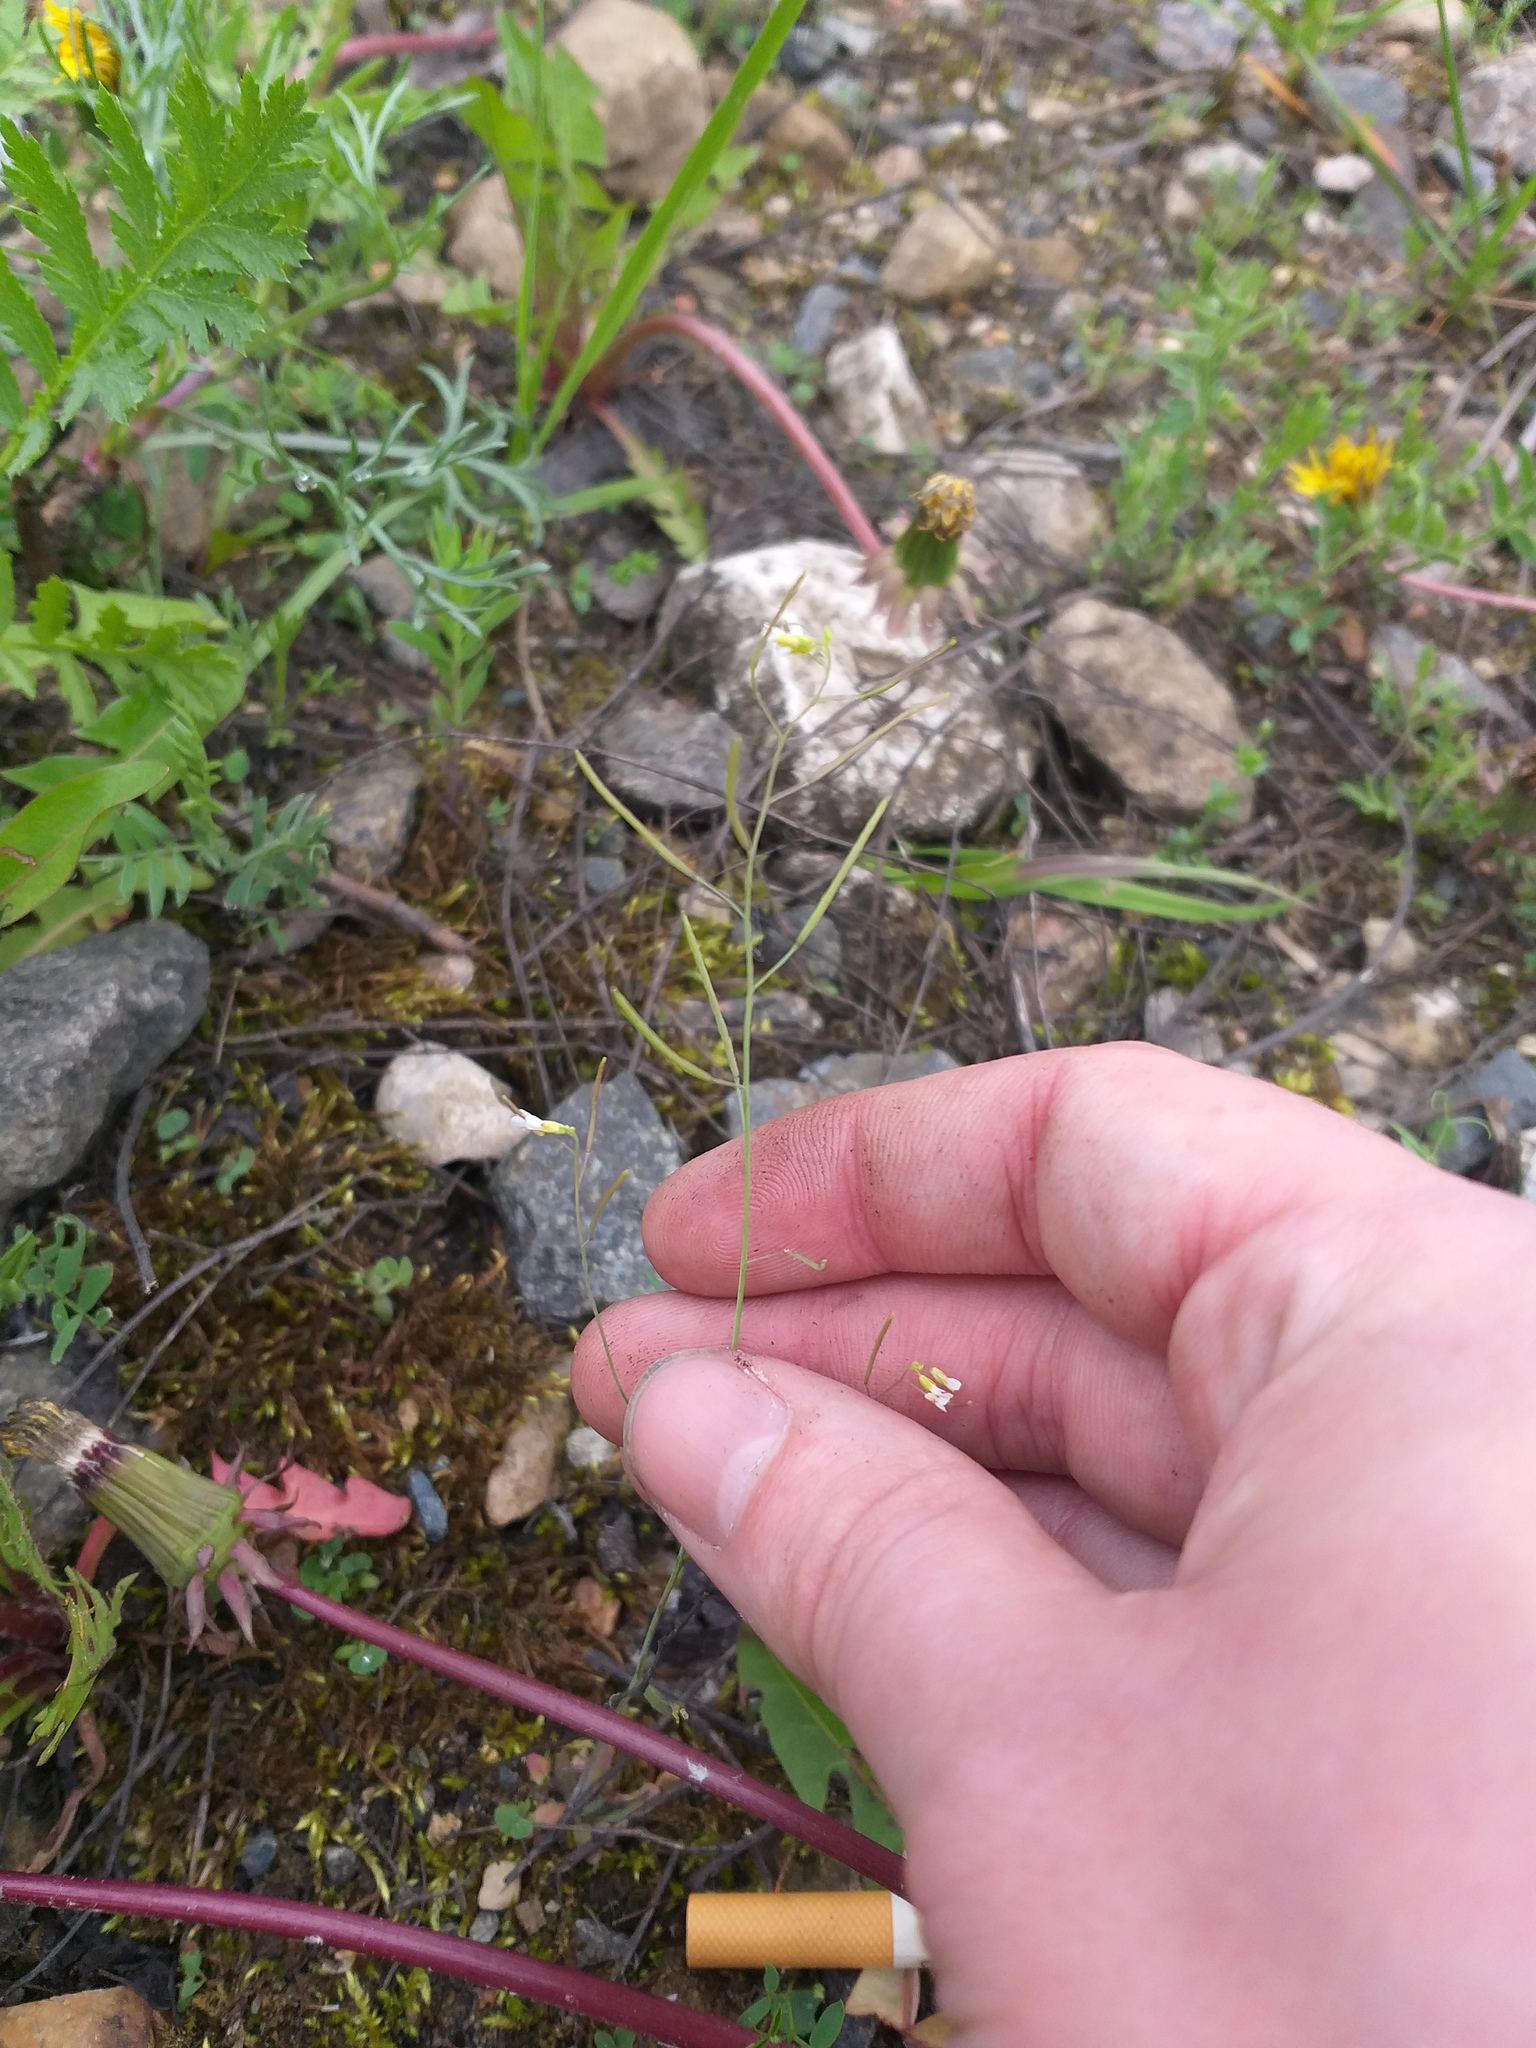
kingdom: Plantae
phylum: Tracheophyta
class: Magnoliopsida
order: Brassicales
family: Brassicaceae
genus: Arabidopsis
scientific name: Arabidopsis thaliana
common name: Thale cress
